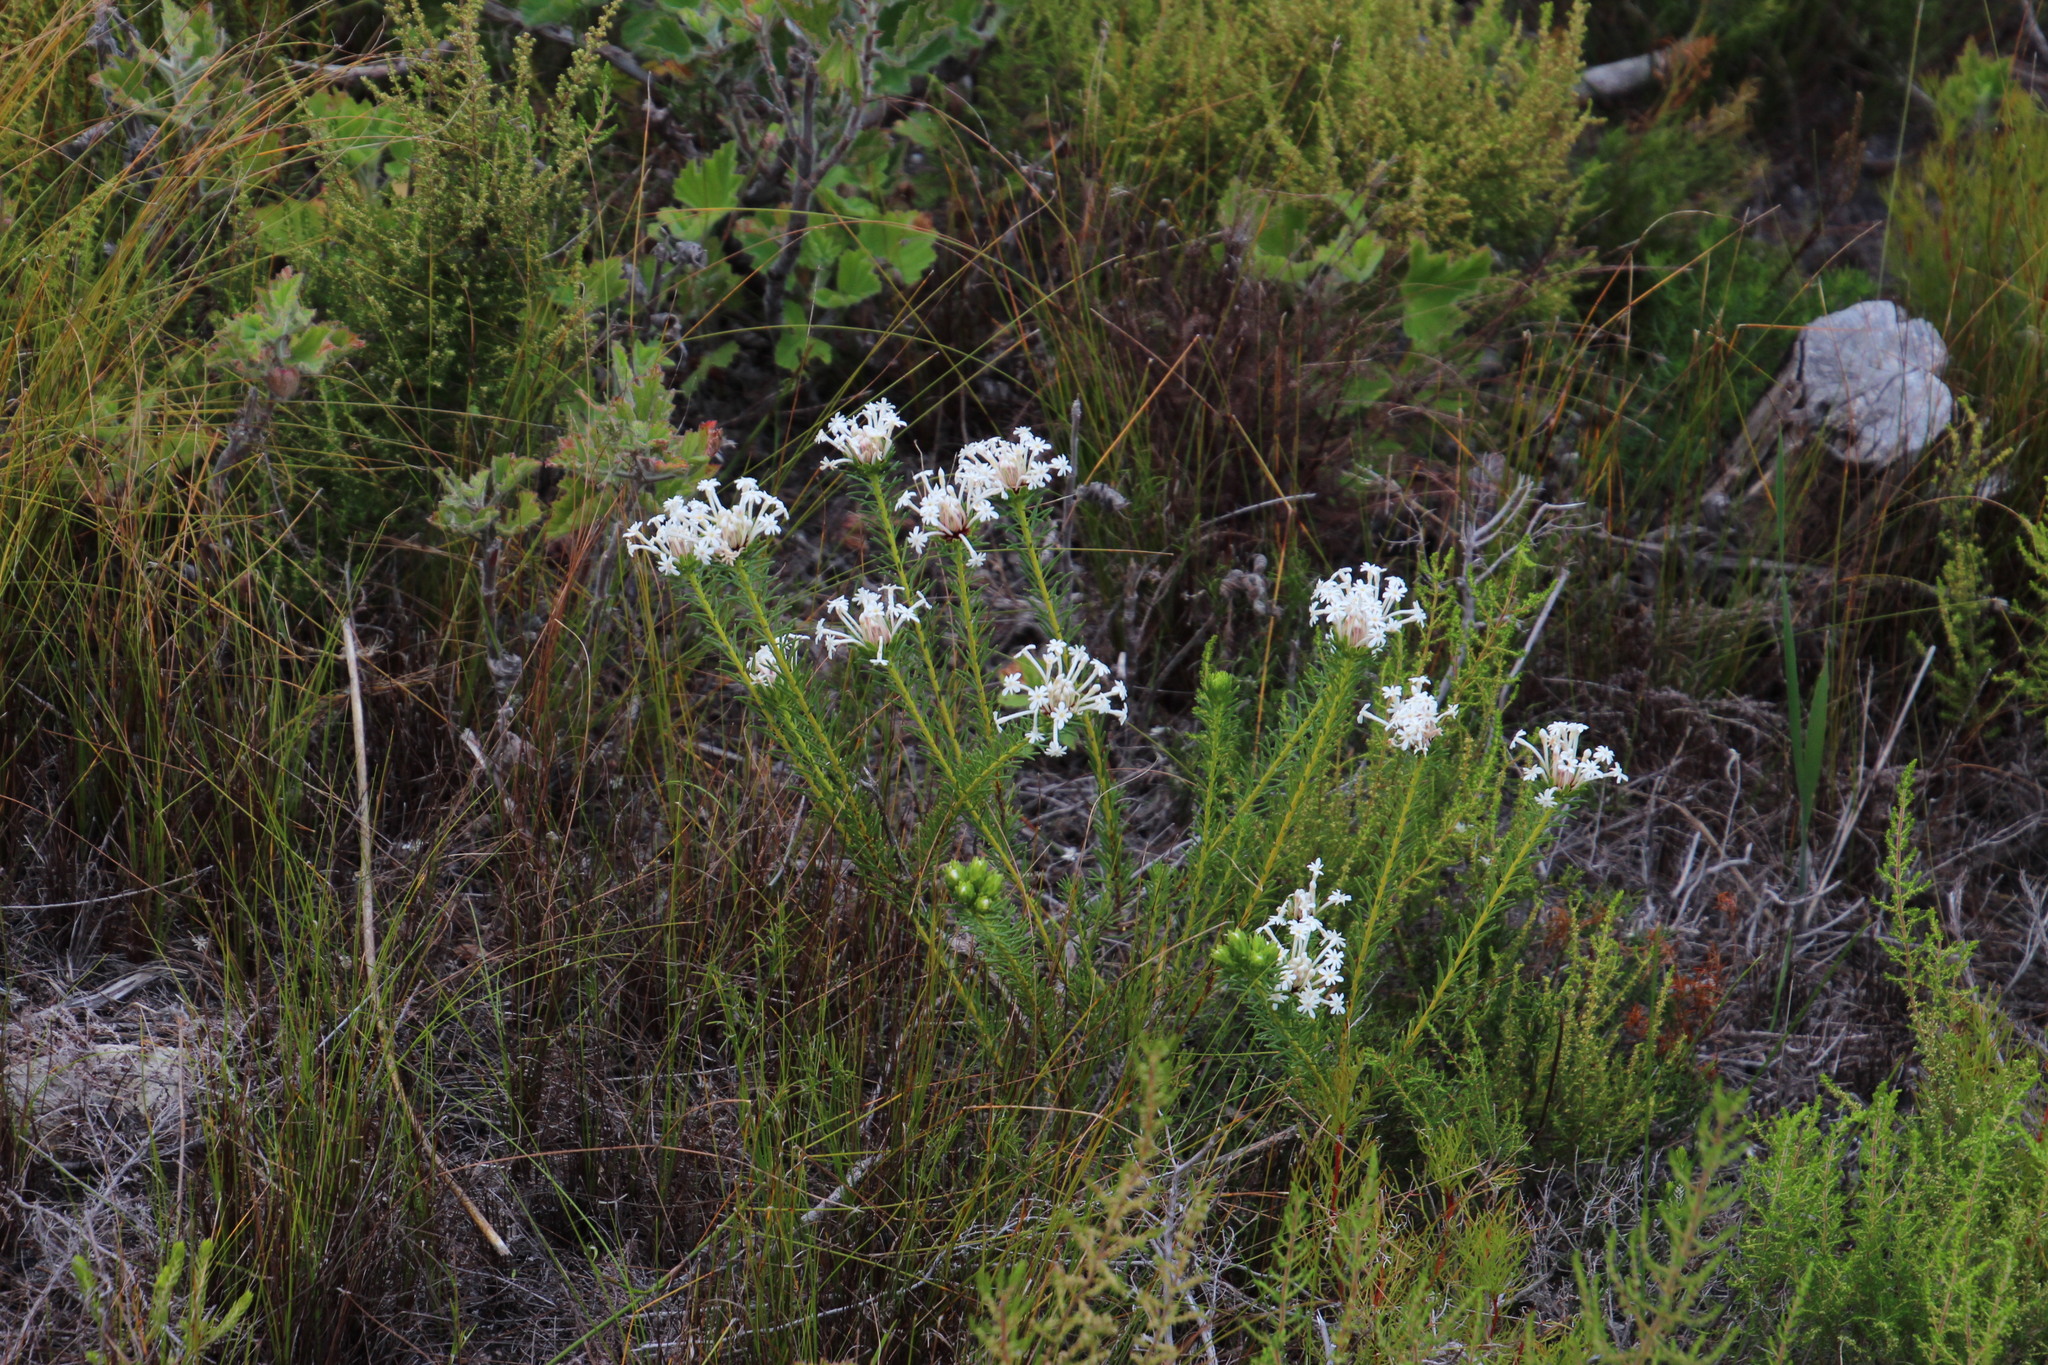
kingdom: Plantae
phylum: Tracheophyta
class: Magnoliopsida
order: Malvales
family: Thymelaeaceae
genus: Gnidia
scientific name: Gnidia pinifolia
